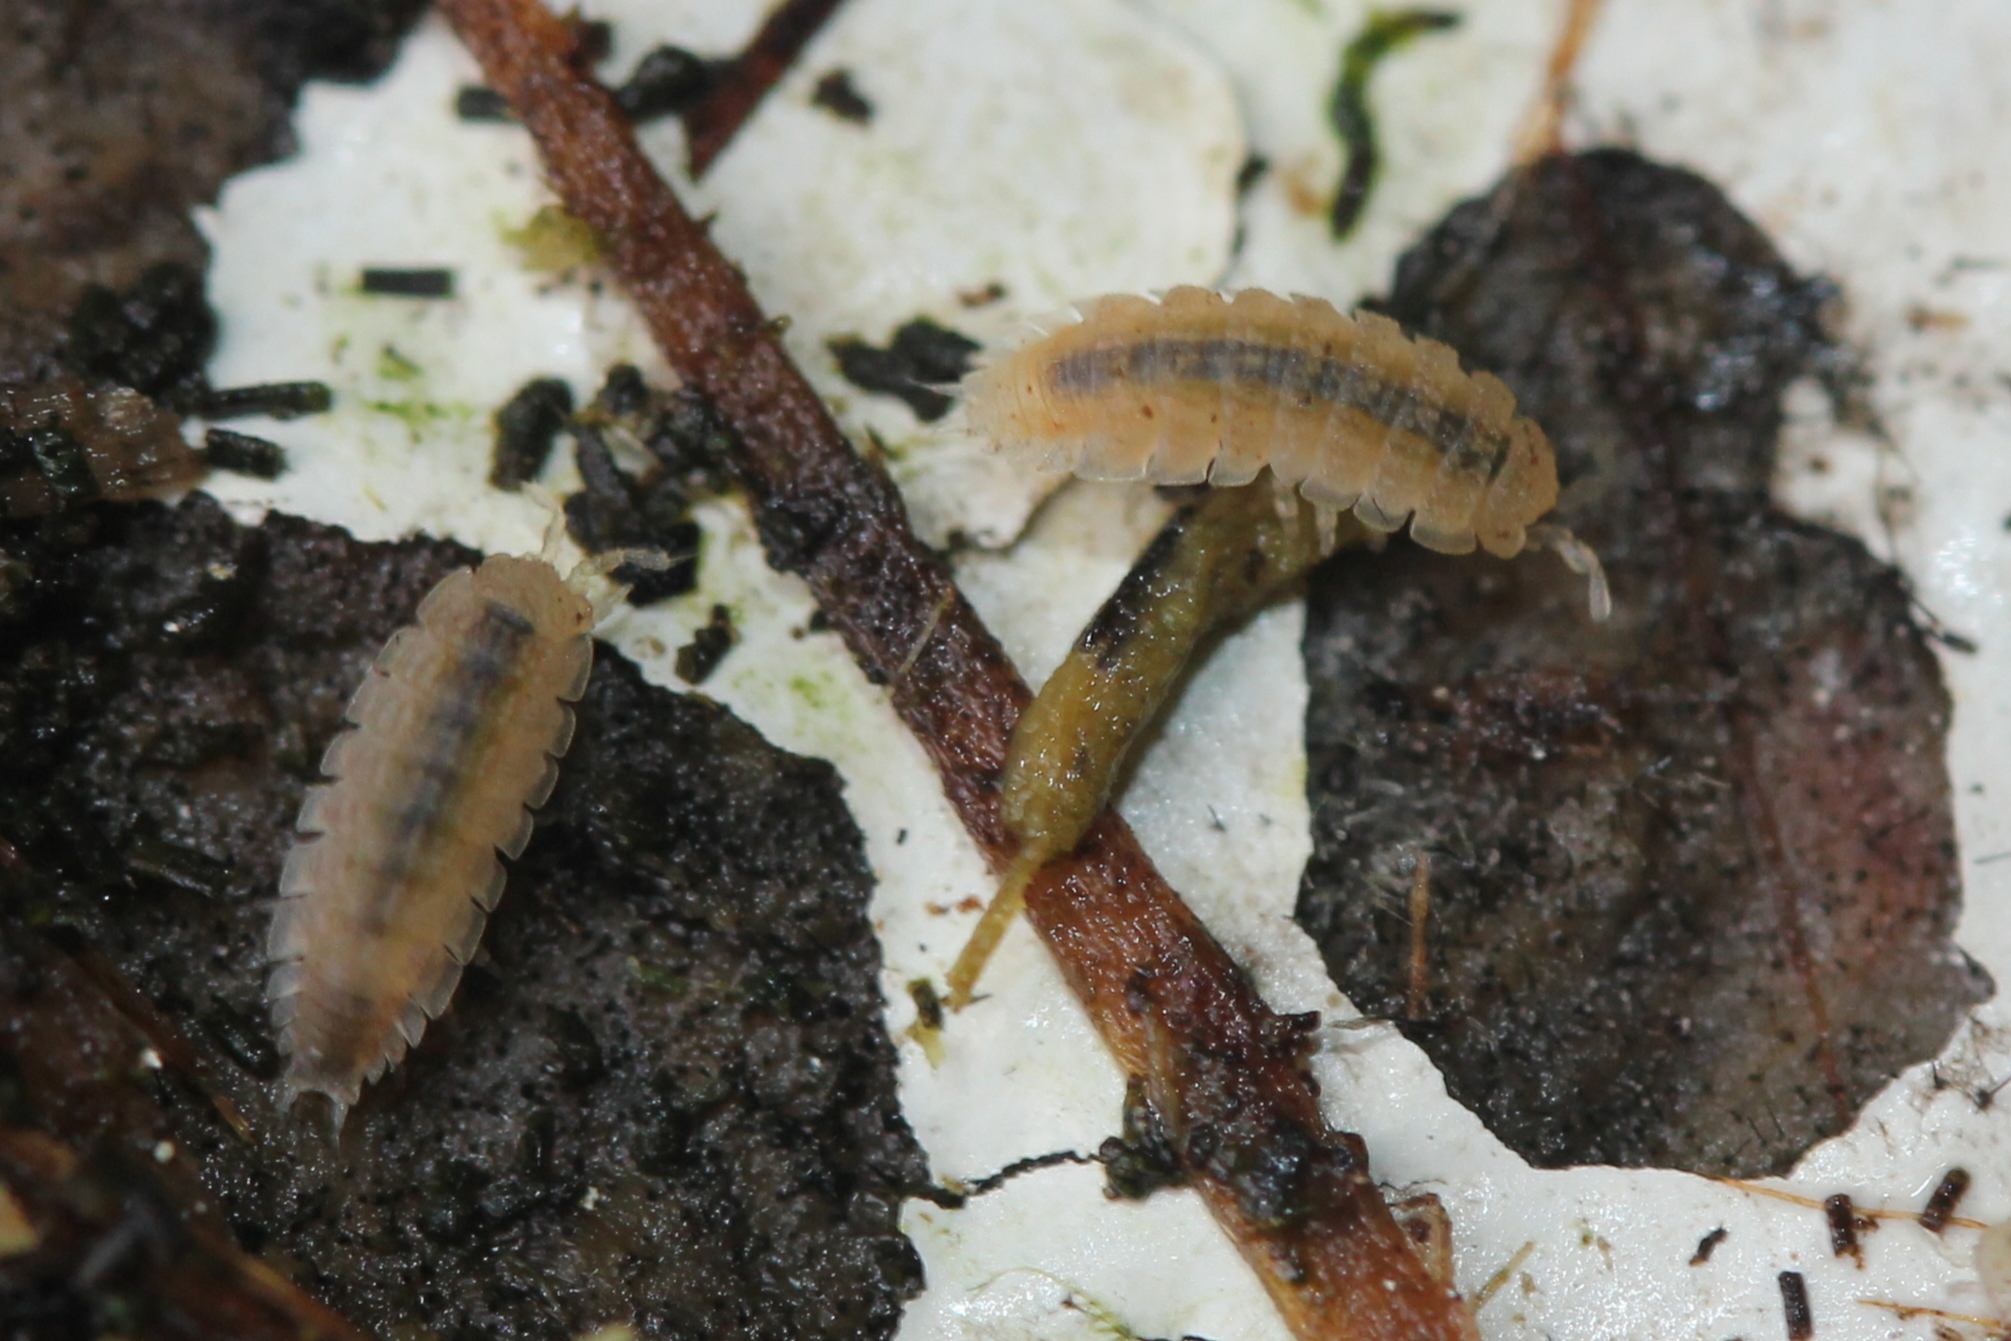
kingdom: Animalia
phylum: Arthropoda
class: Malacostraca
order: Isopoda
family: Trichoniscidae
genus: Haplophthalmus
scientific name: Haplophthalmus danicus
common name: Pillbug
